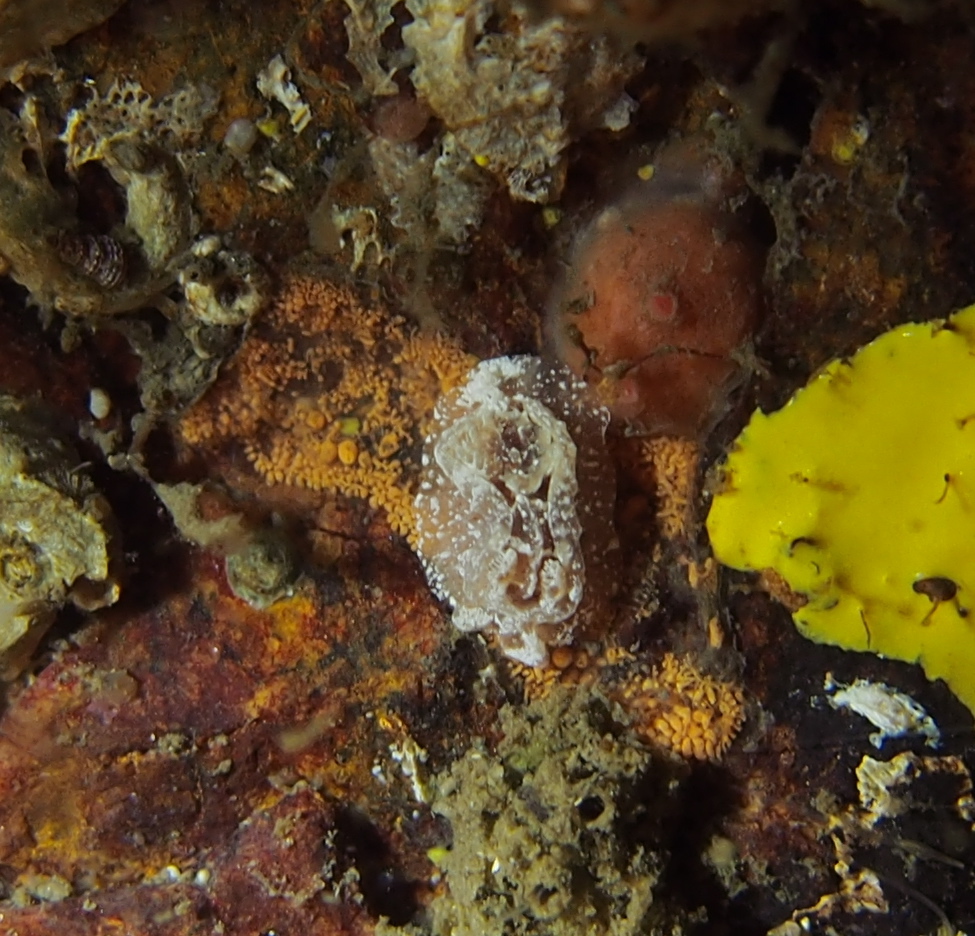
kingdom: Animalia
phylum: Mollusca
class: Gastropoda
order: Nudibranchia
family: Goniodorididae
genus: Pelagella
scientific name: Pelagella castanea
